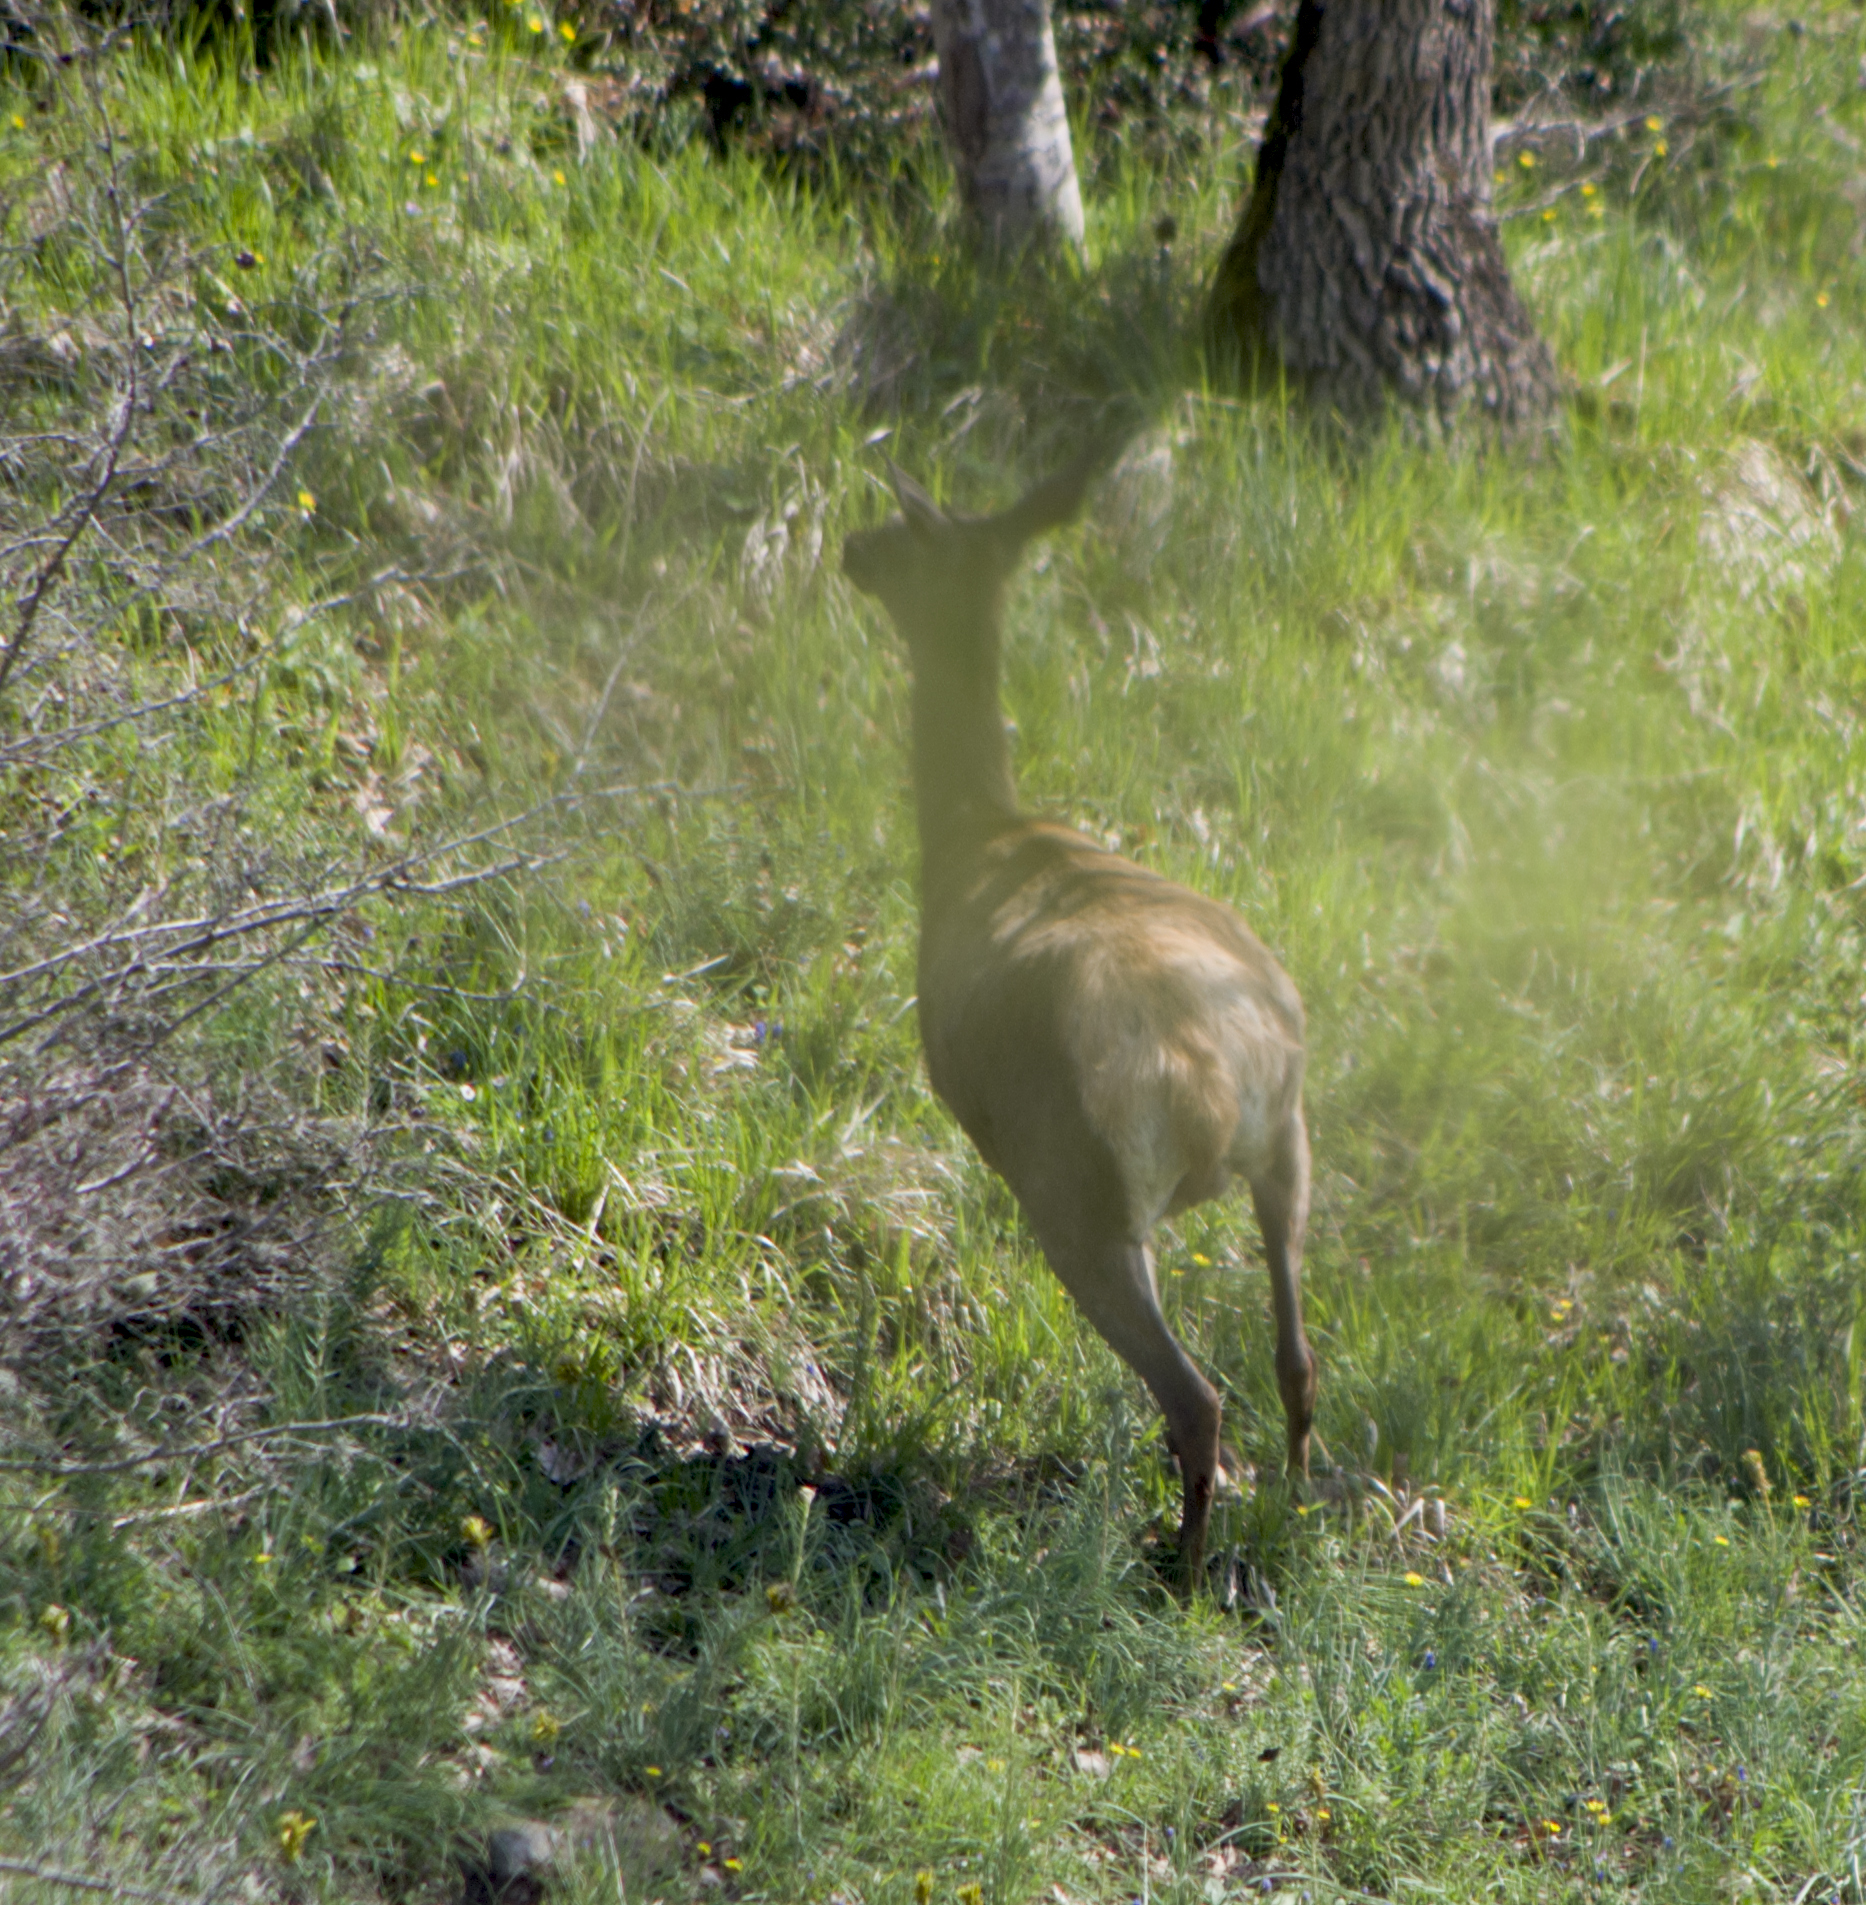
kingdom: Animalia
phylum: Chordata
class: Mammalia
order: Artiodactyla
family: Cervidae
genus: Cervus
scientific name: Cervus elaphus
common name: Red deer
